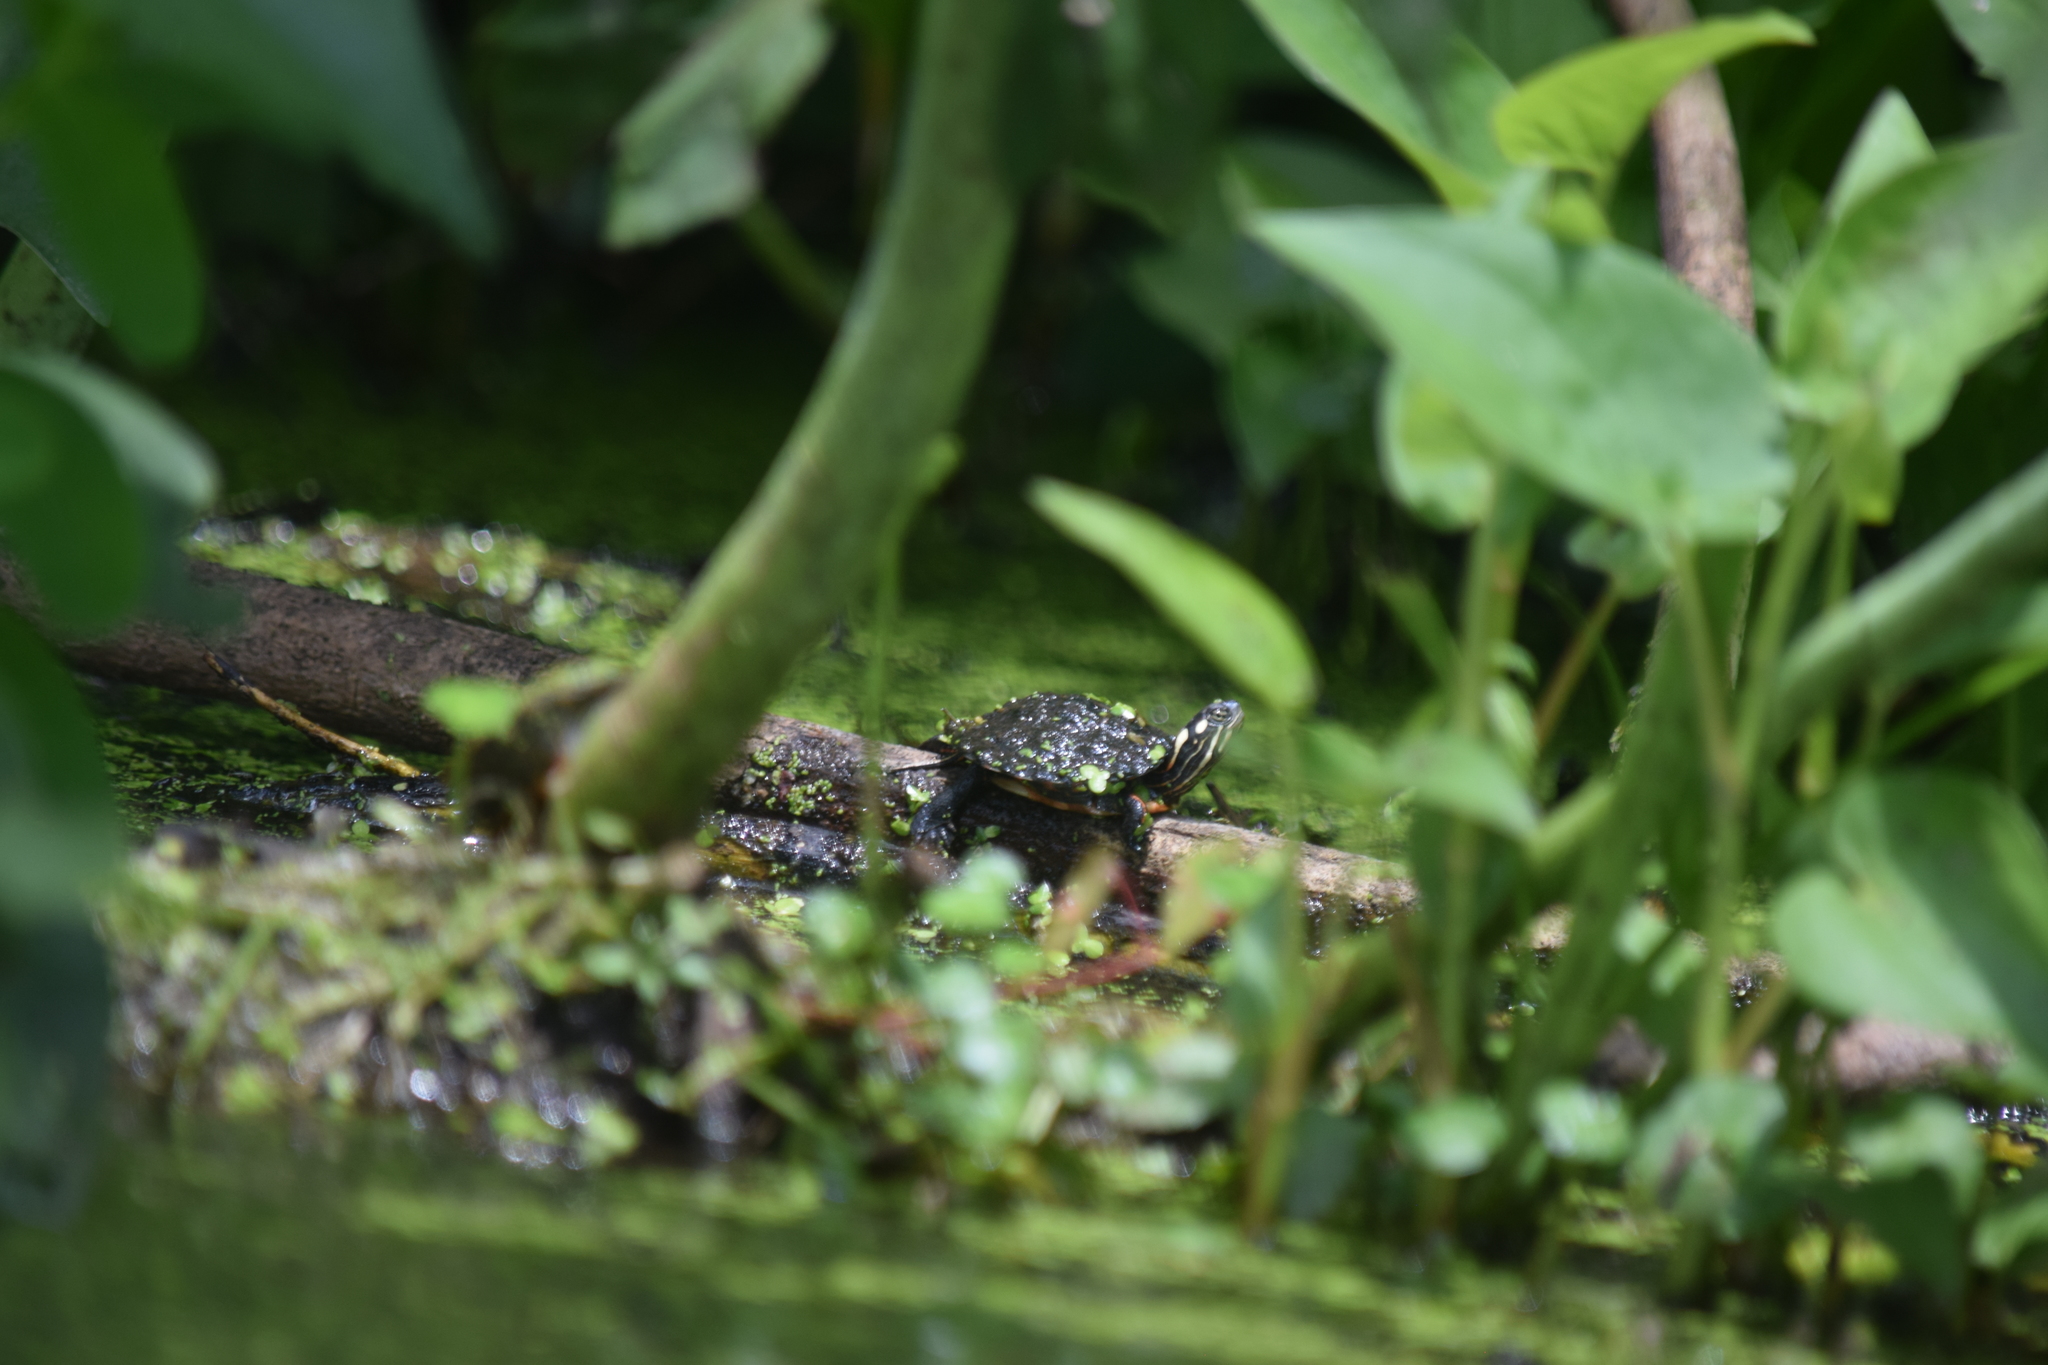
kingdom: Animalia
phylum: Chordata
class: Testudines
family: Emydidae
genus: Chrysemys
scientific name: Chrysemys picta
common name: Painted turtle
